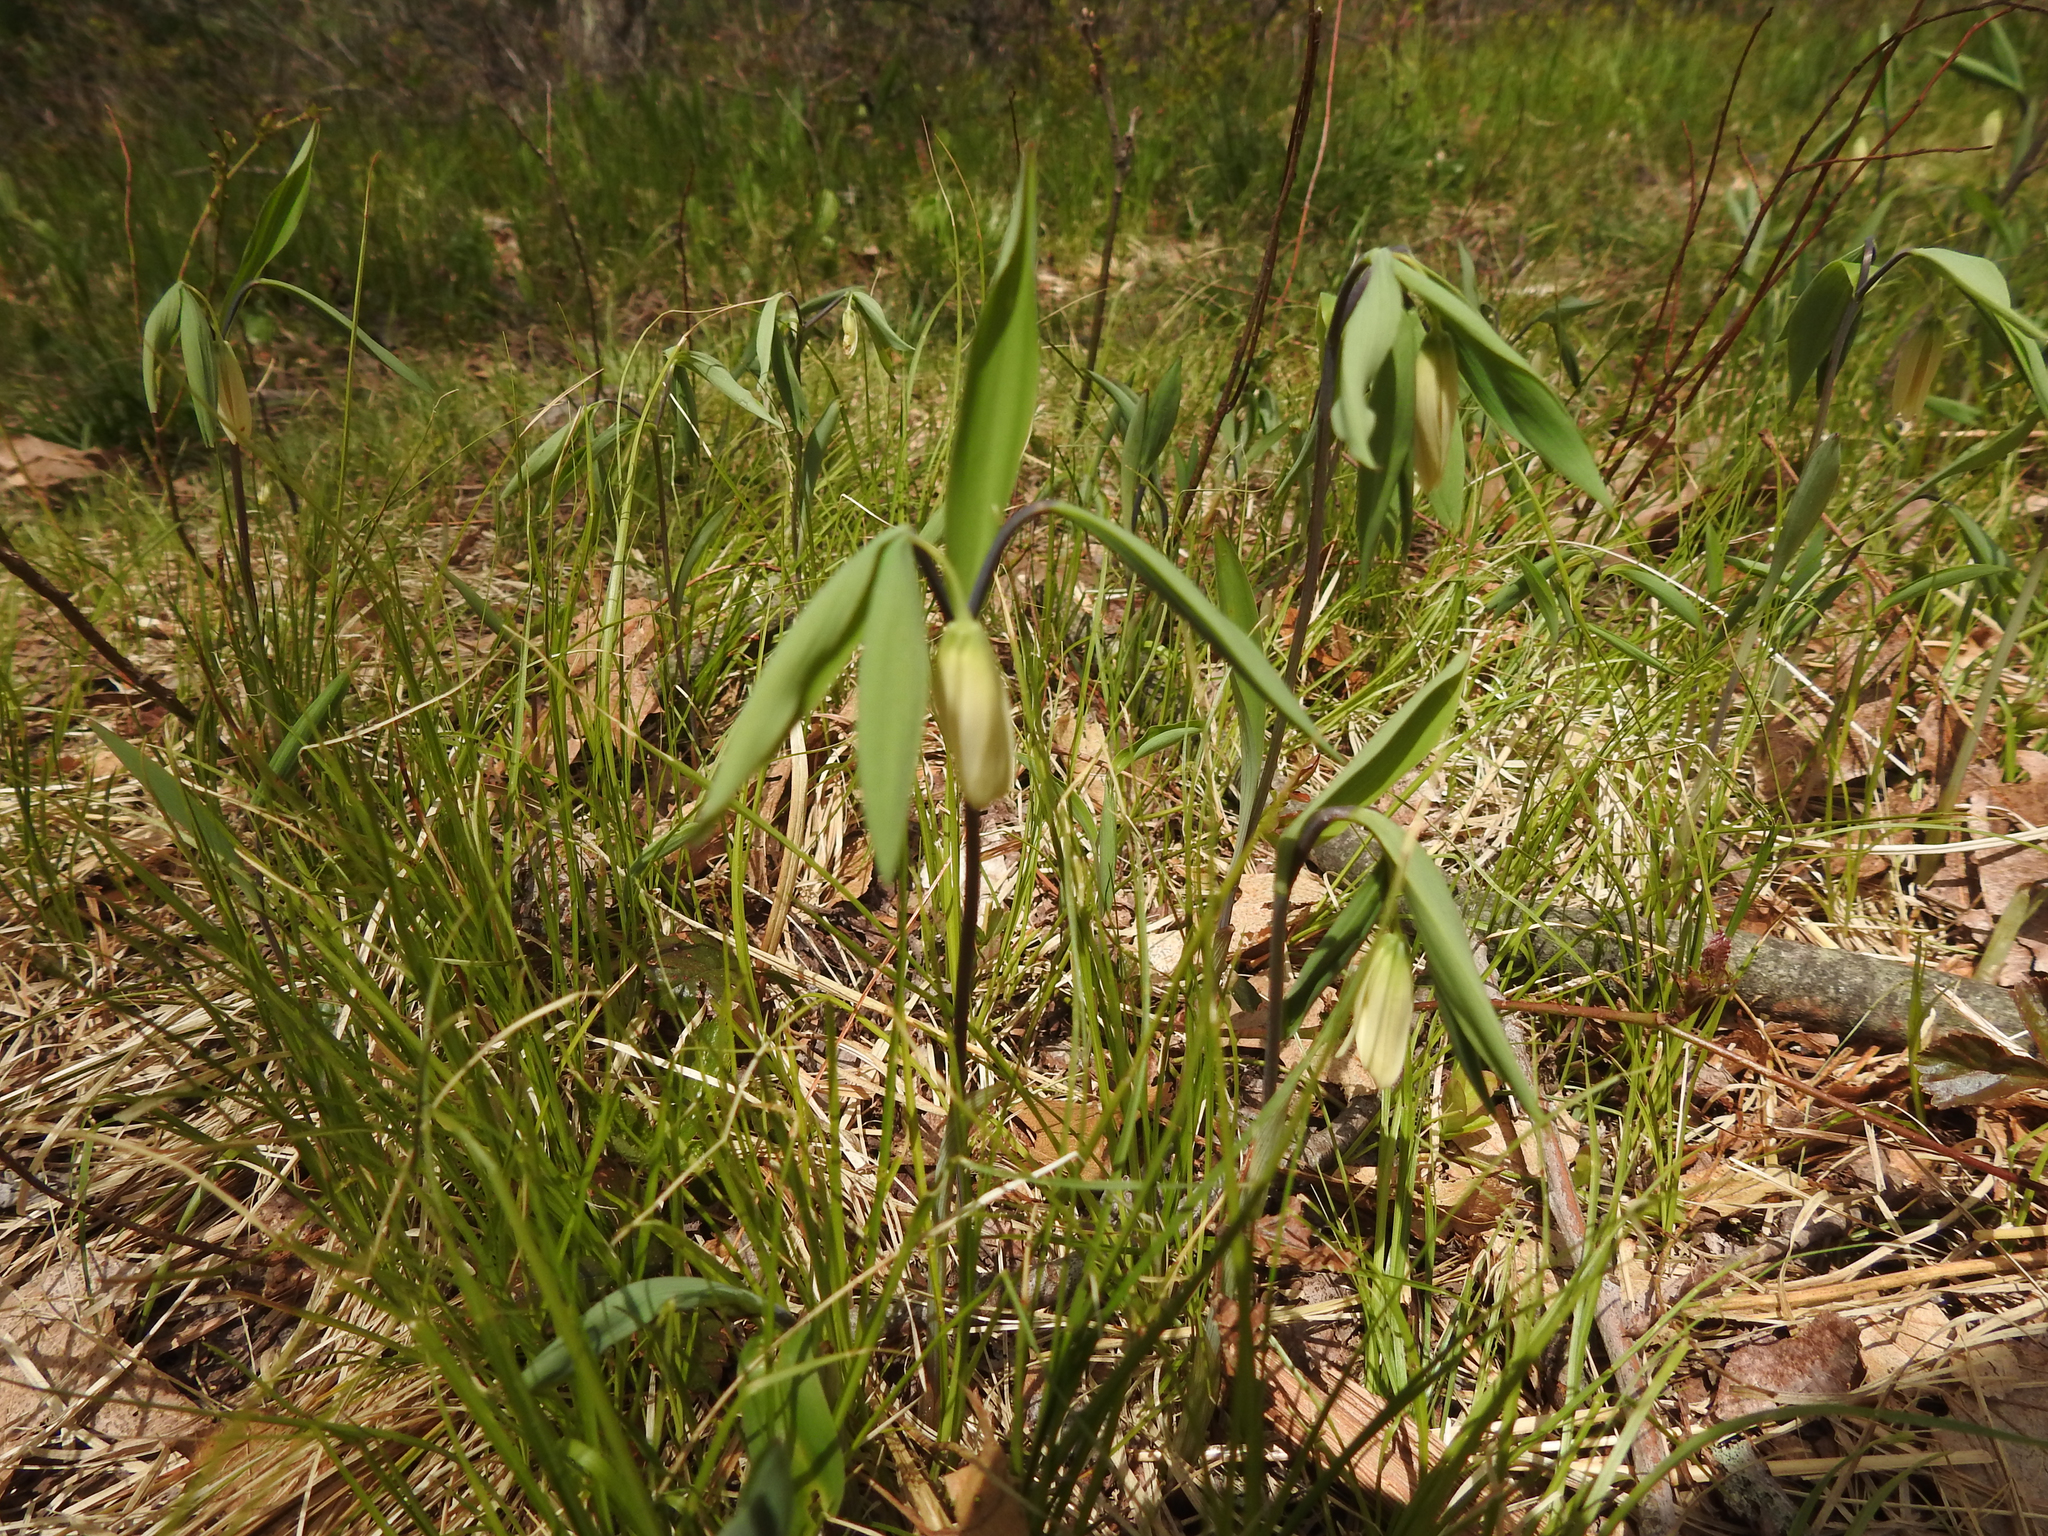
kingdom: Plantae
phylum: Tracheophyta
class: Liliopsida
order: Liliales
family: Colchicaceae
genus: Uvularia
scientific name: Uvularia sessilifolia
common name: Straw-lily
